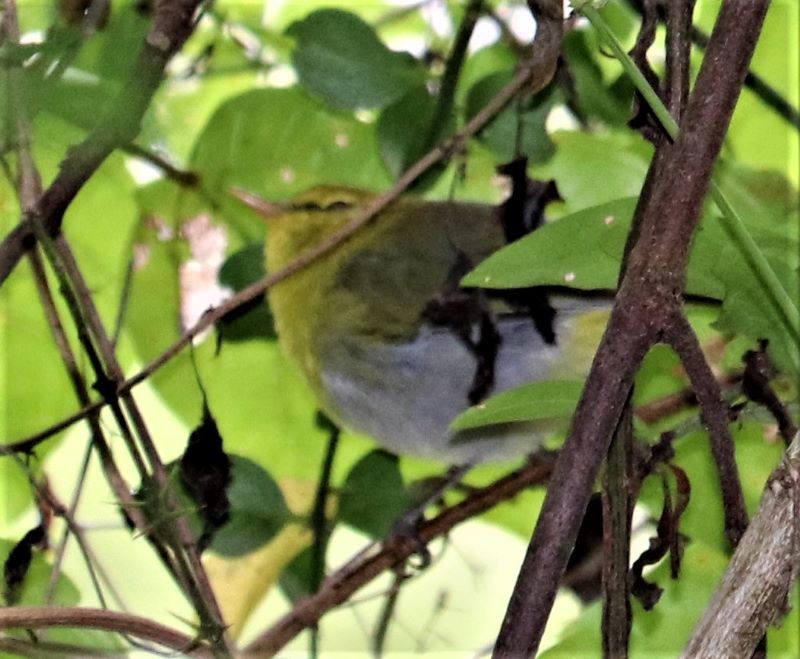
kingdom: Animalia
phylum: Chordata
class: Aves
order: Passeriformes
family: Phylloscopidae
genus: Phylloscopus
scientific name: Phylloscopus ruficapilla
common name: Yellow-throated woodland warbler
